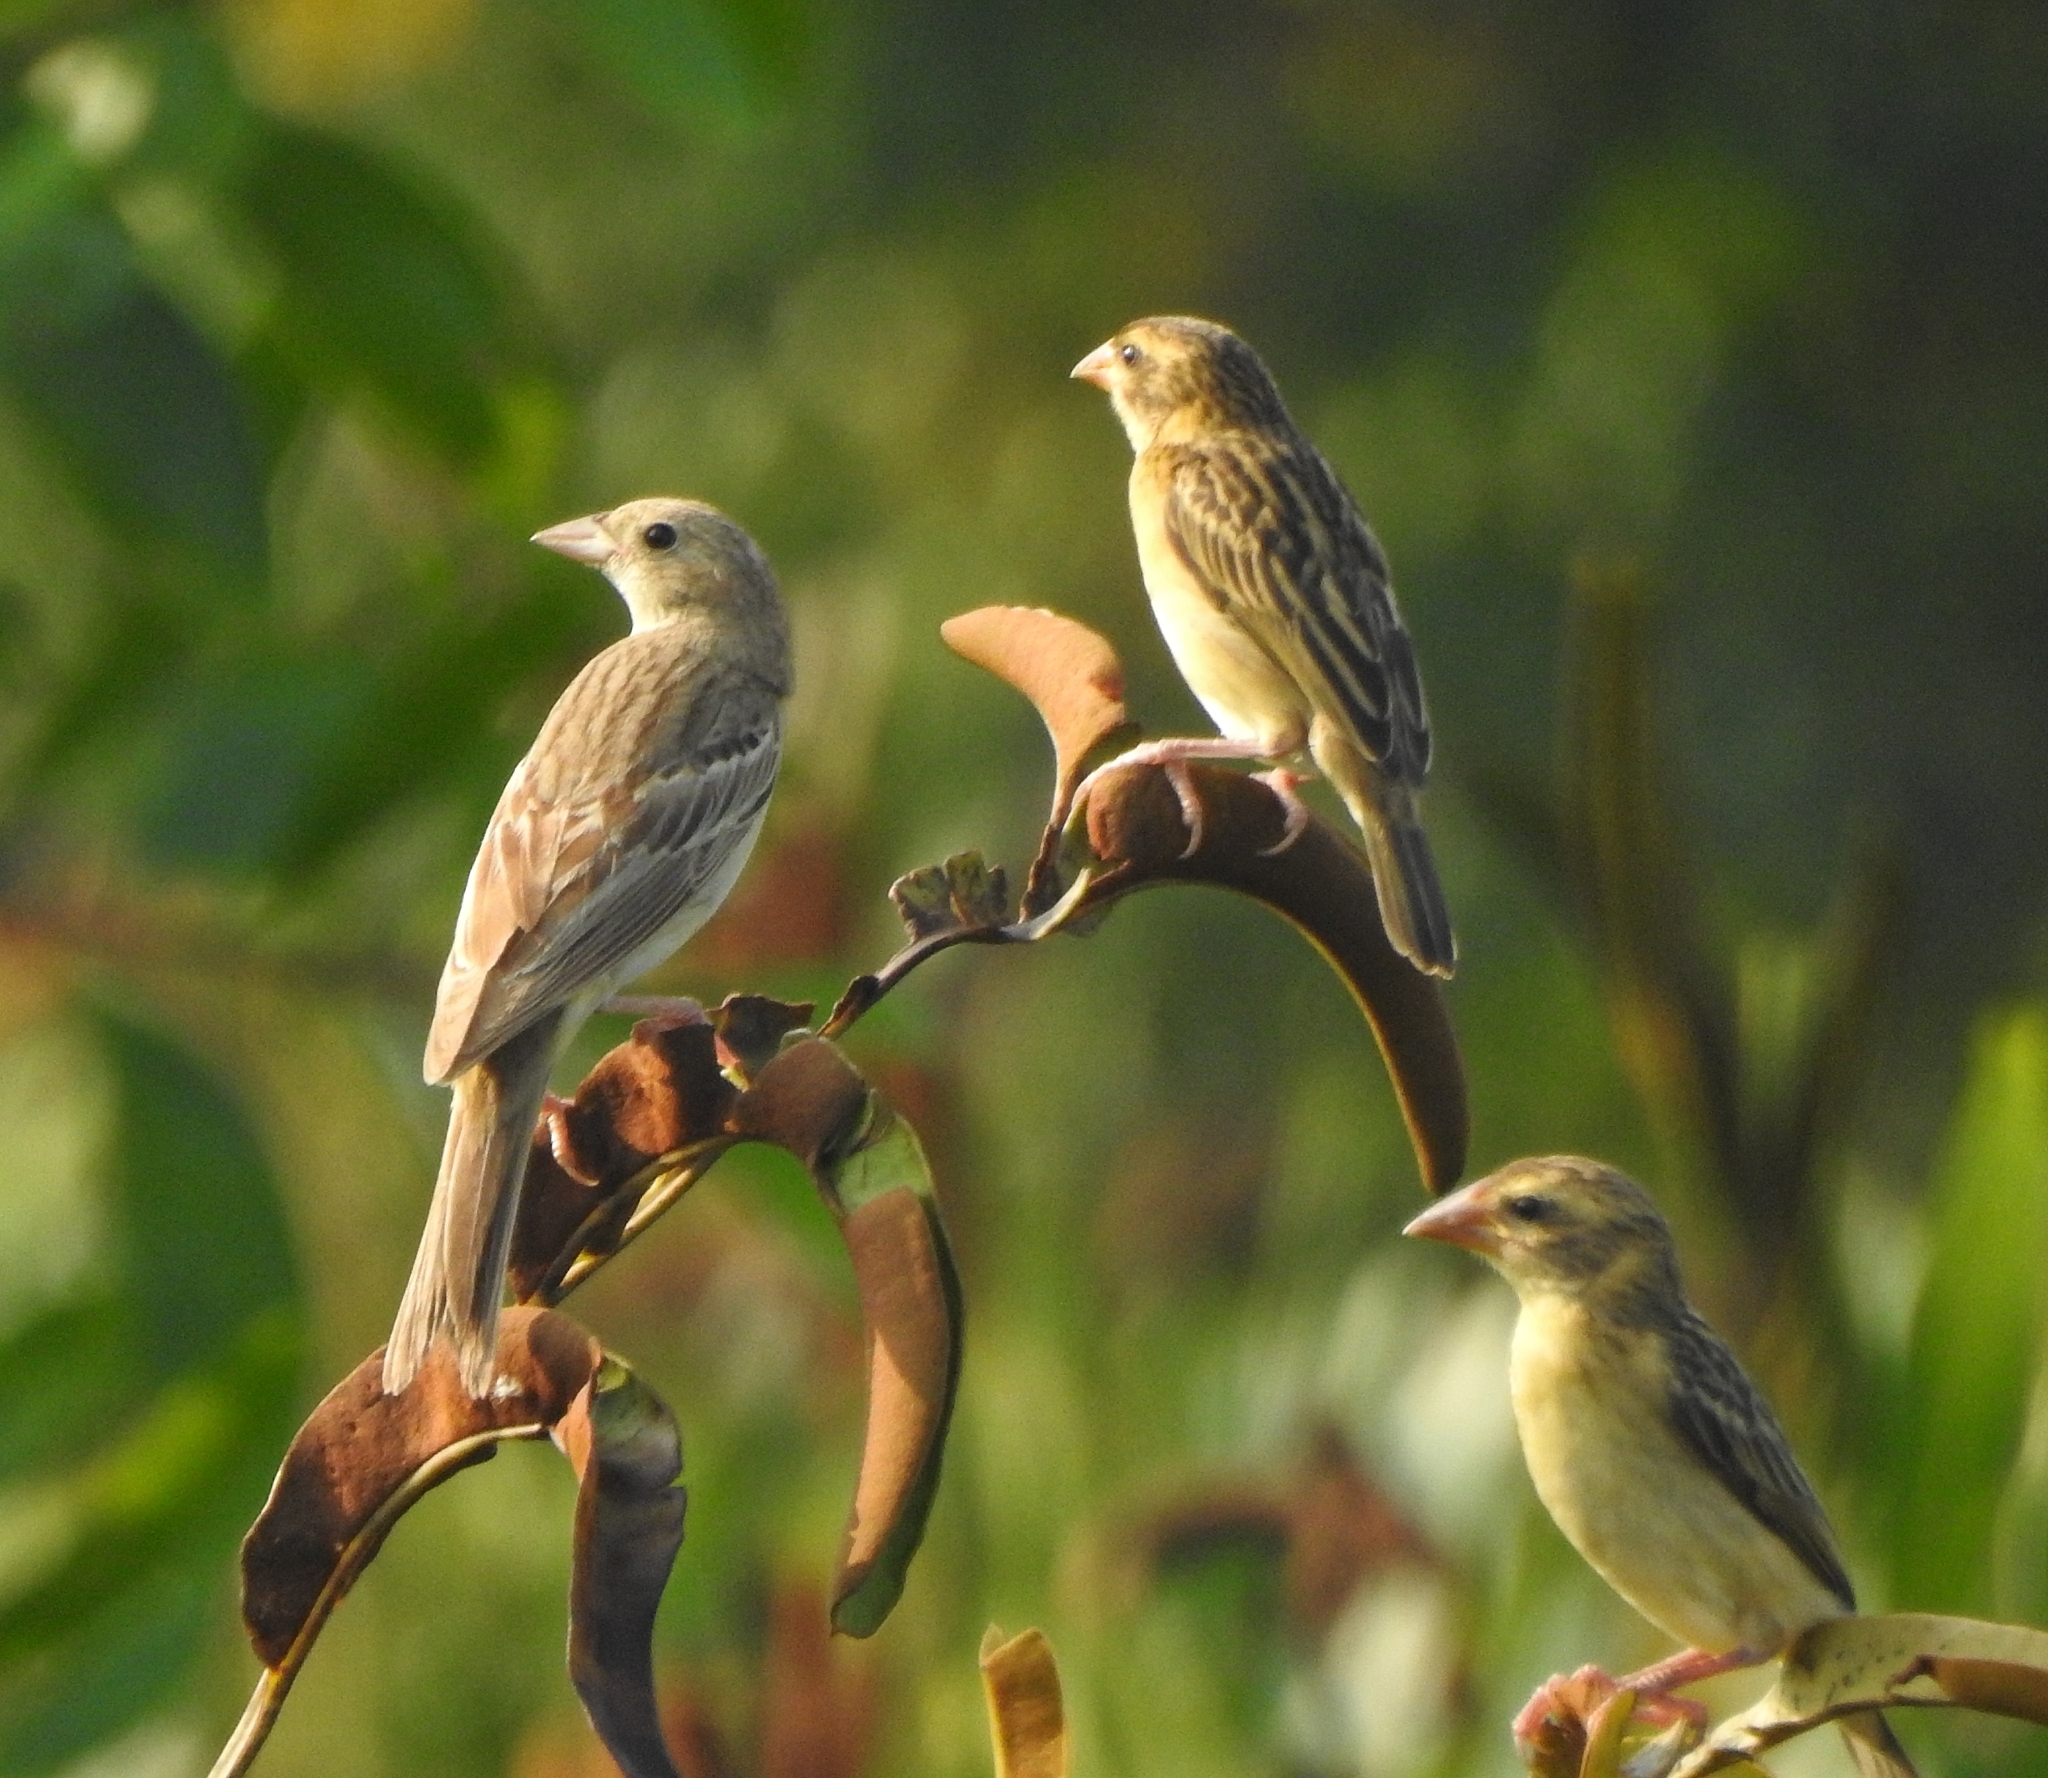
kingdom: Animalia
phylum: Chordata
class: Aves
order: Passeriformes
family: Emberizidae
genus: Emberiza
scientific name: Emberiza melanocephala
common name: Black-headed bunting
